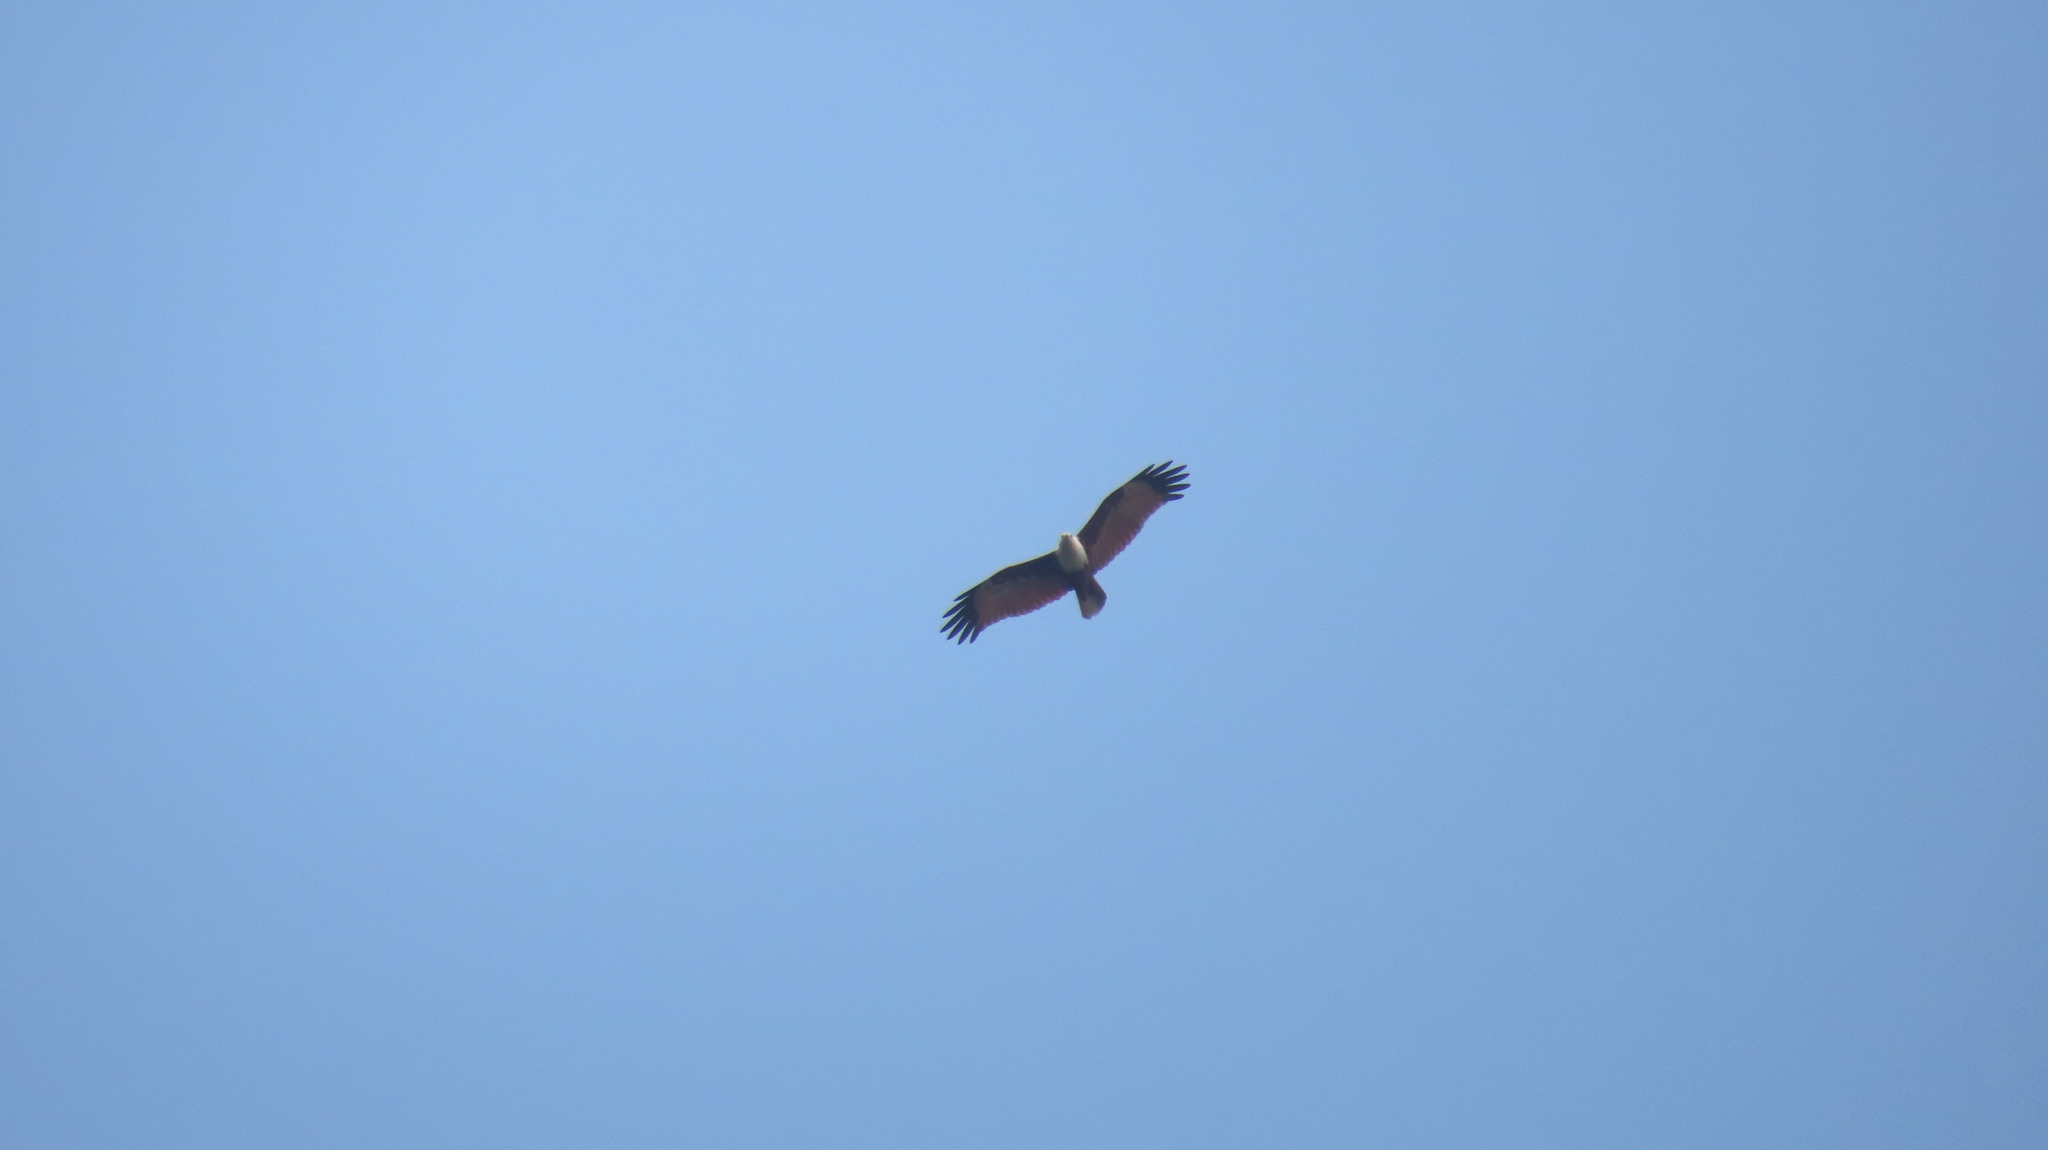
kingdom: Animalia
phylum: Chordata
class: Aves
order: Accipitriformes
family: Accipitridae
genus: Haliastur
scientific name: Haliastur indus
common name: Brahminy kite
